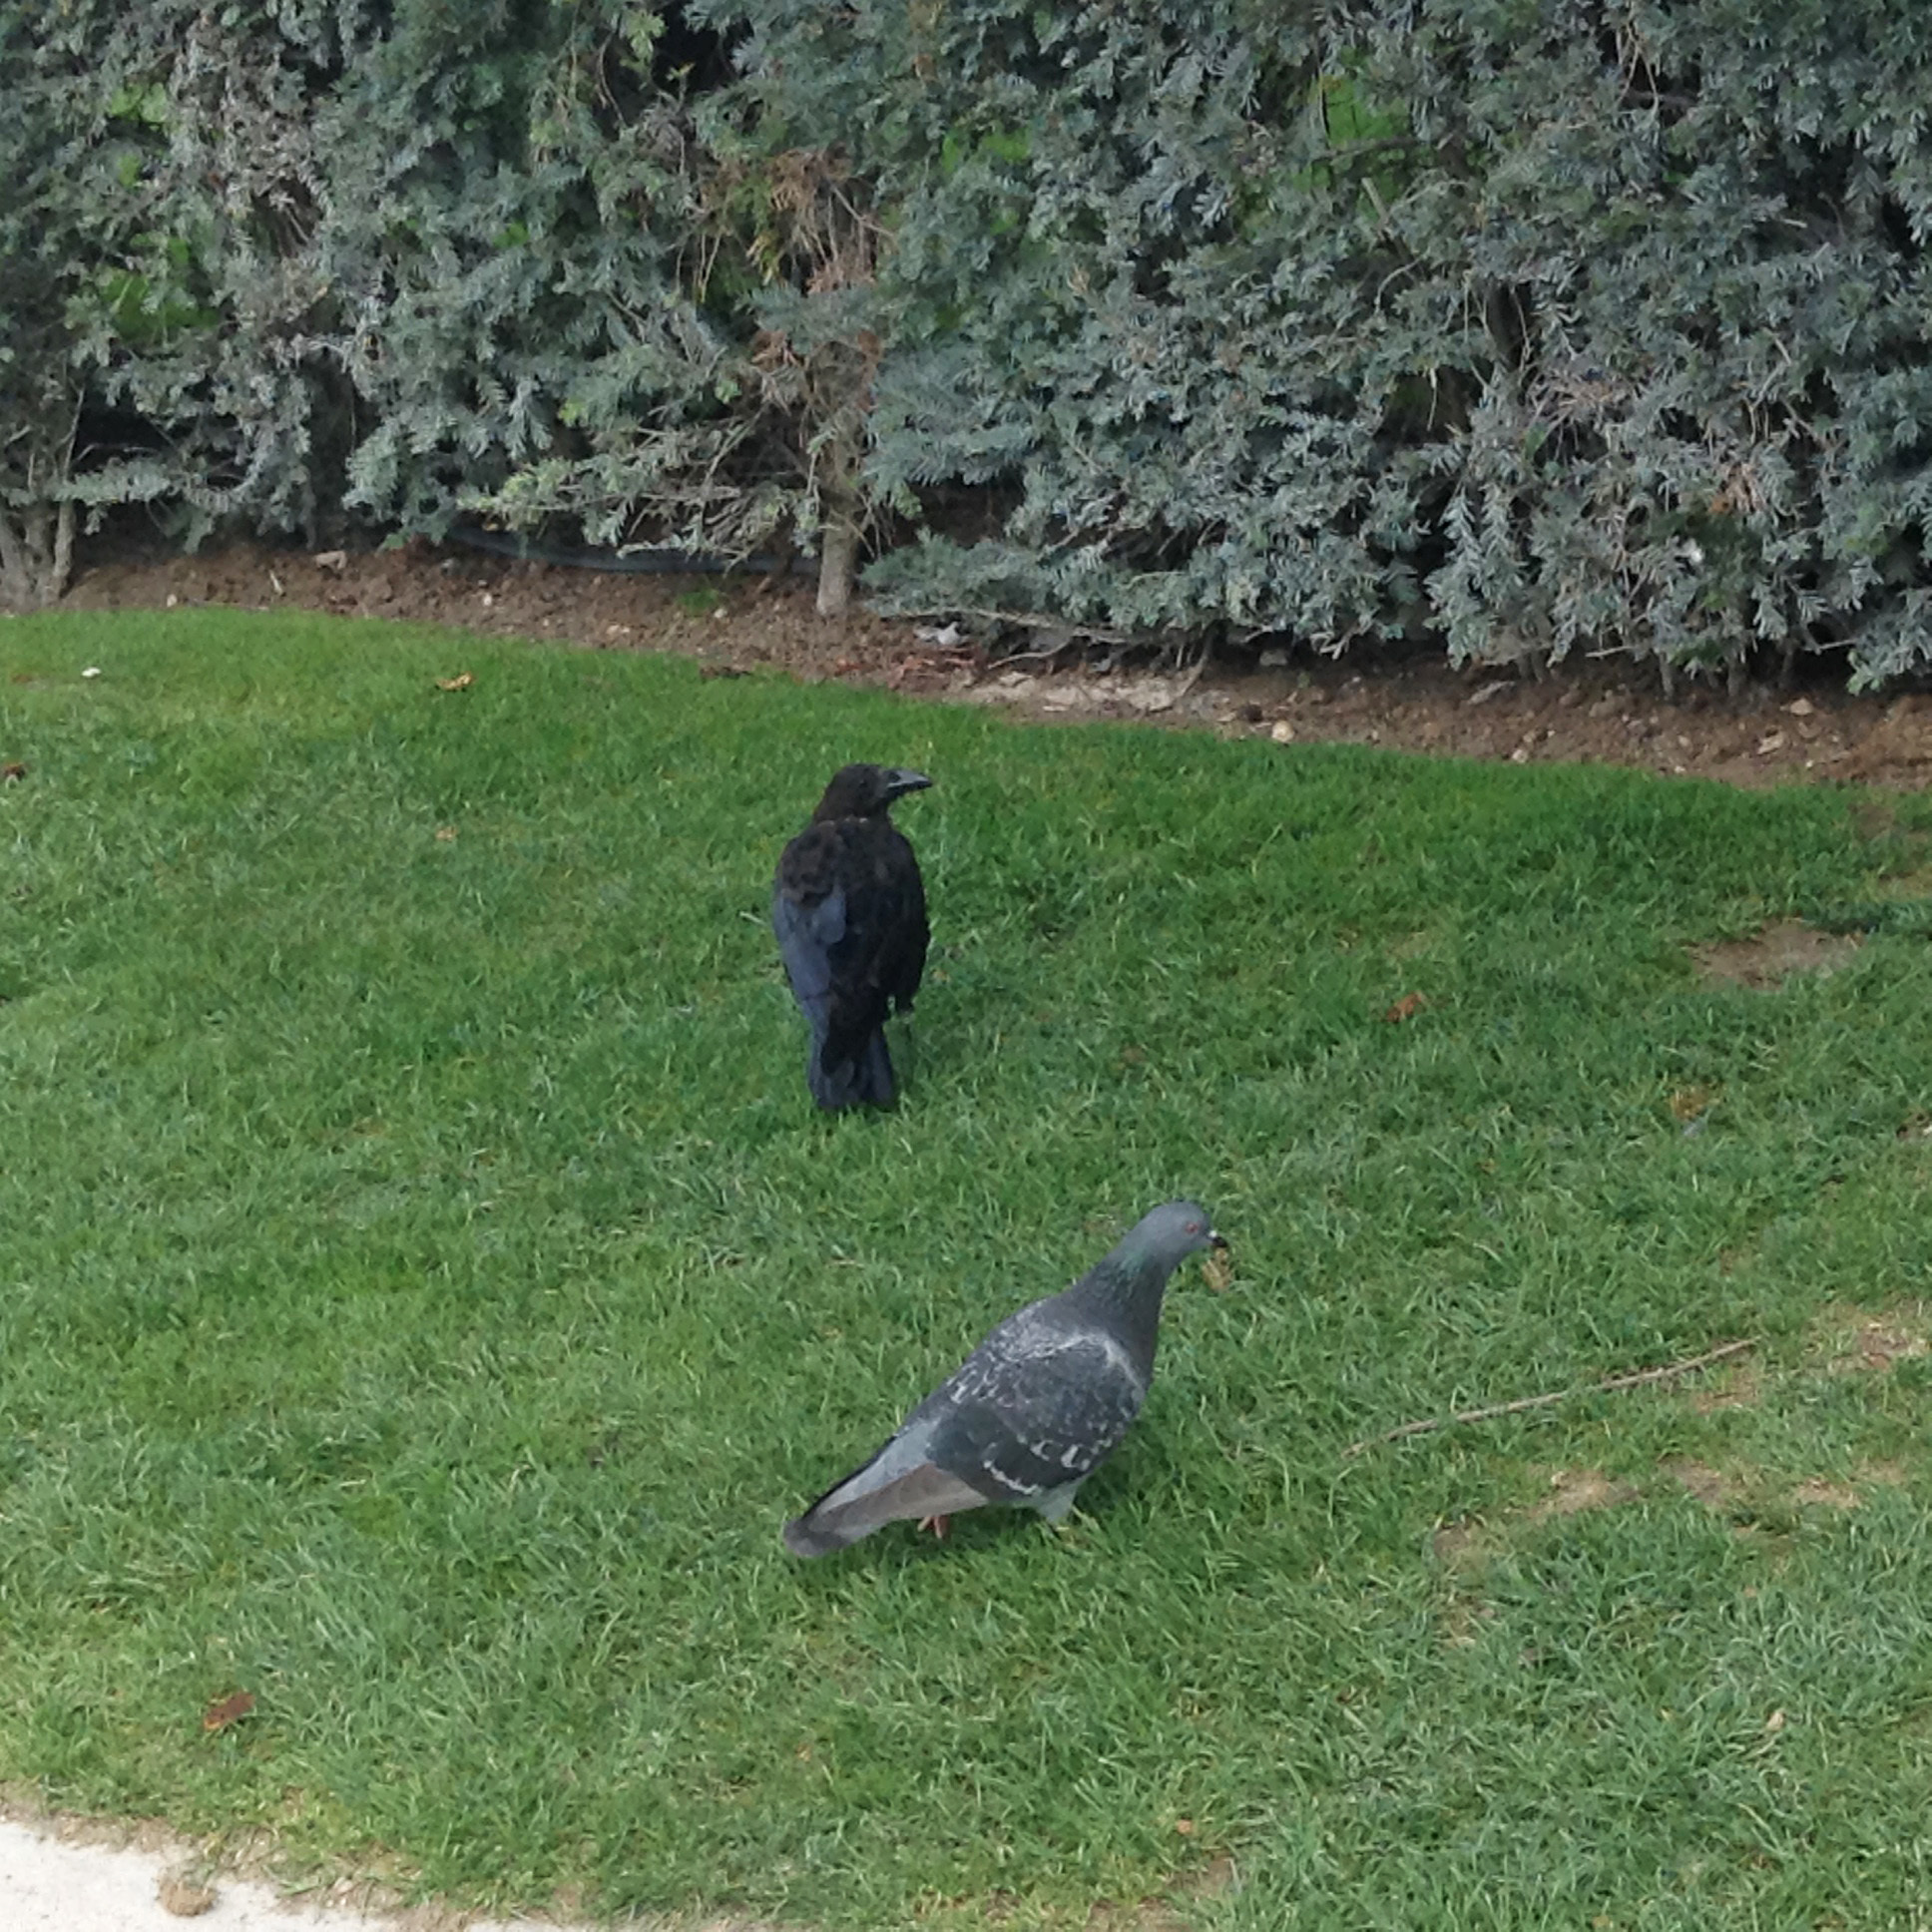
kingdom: Animalia
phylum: Chordata
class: Aves
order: Passeriformes
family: Corvidae
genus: Corvus
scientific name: Corvus corone
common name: Carrion crow
